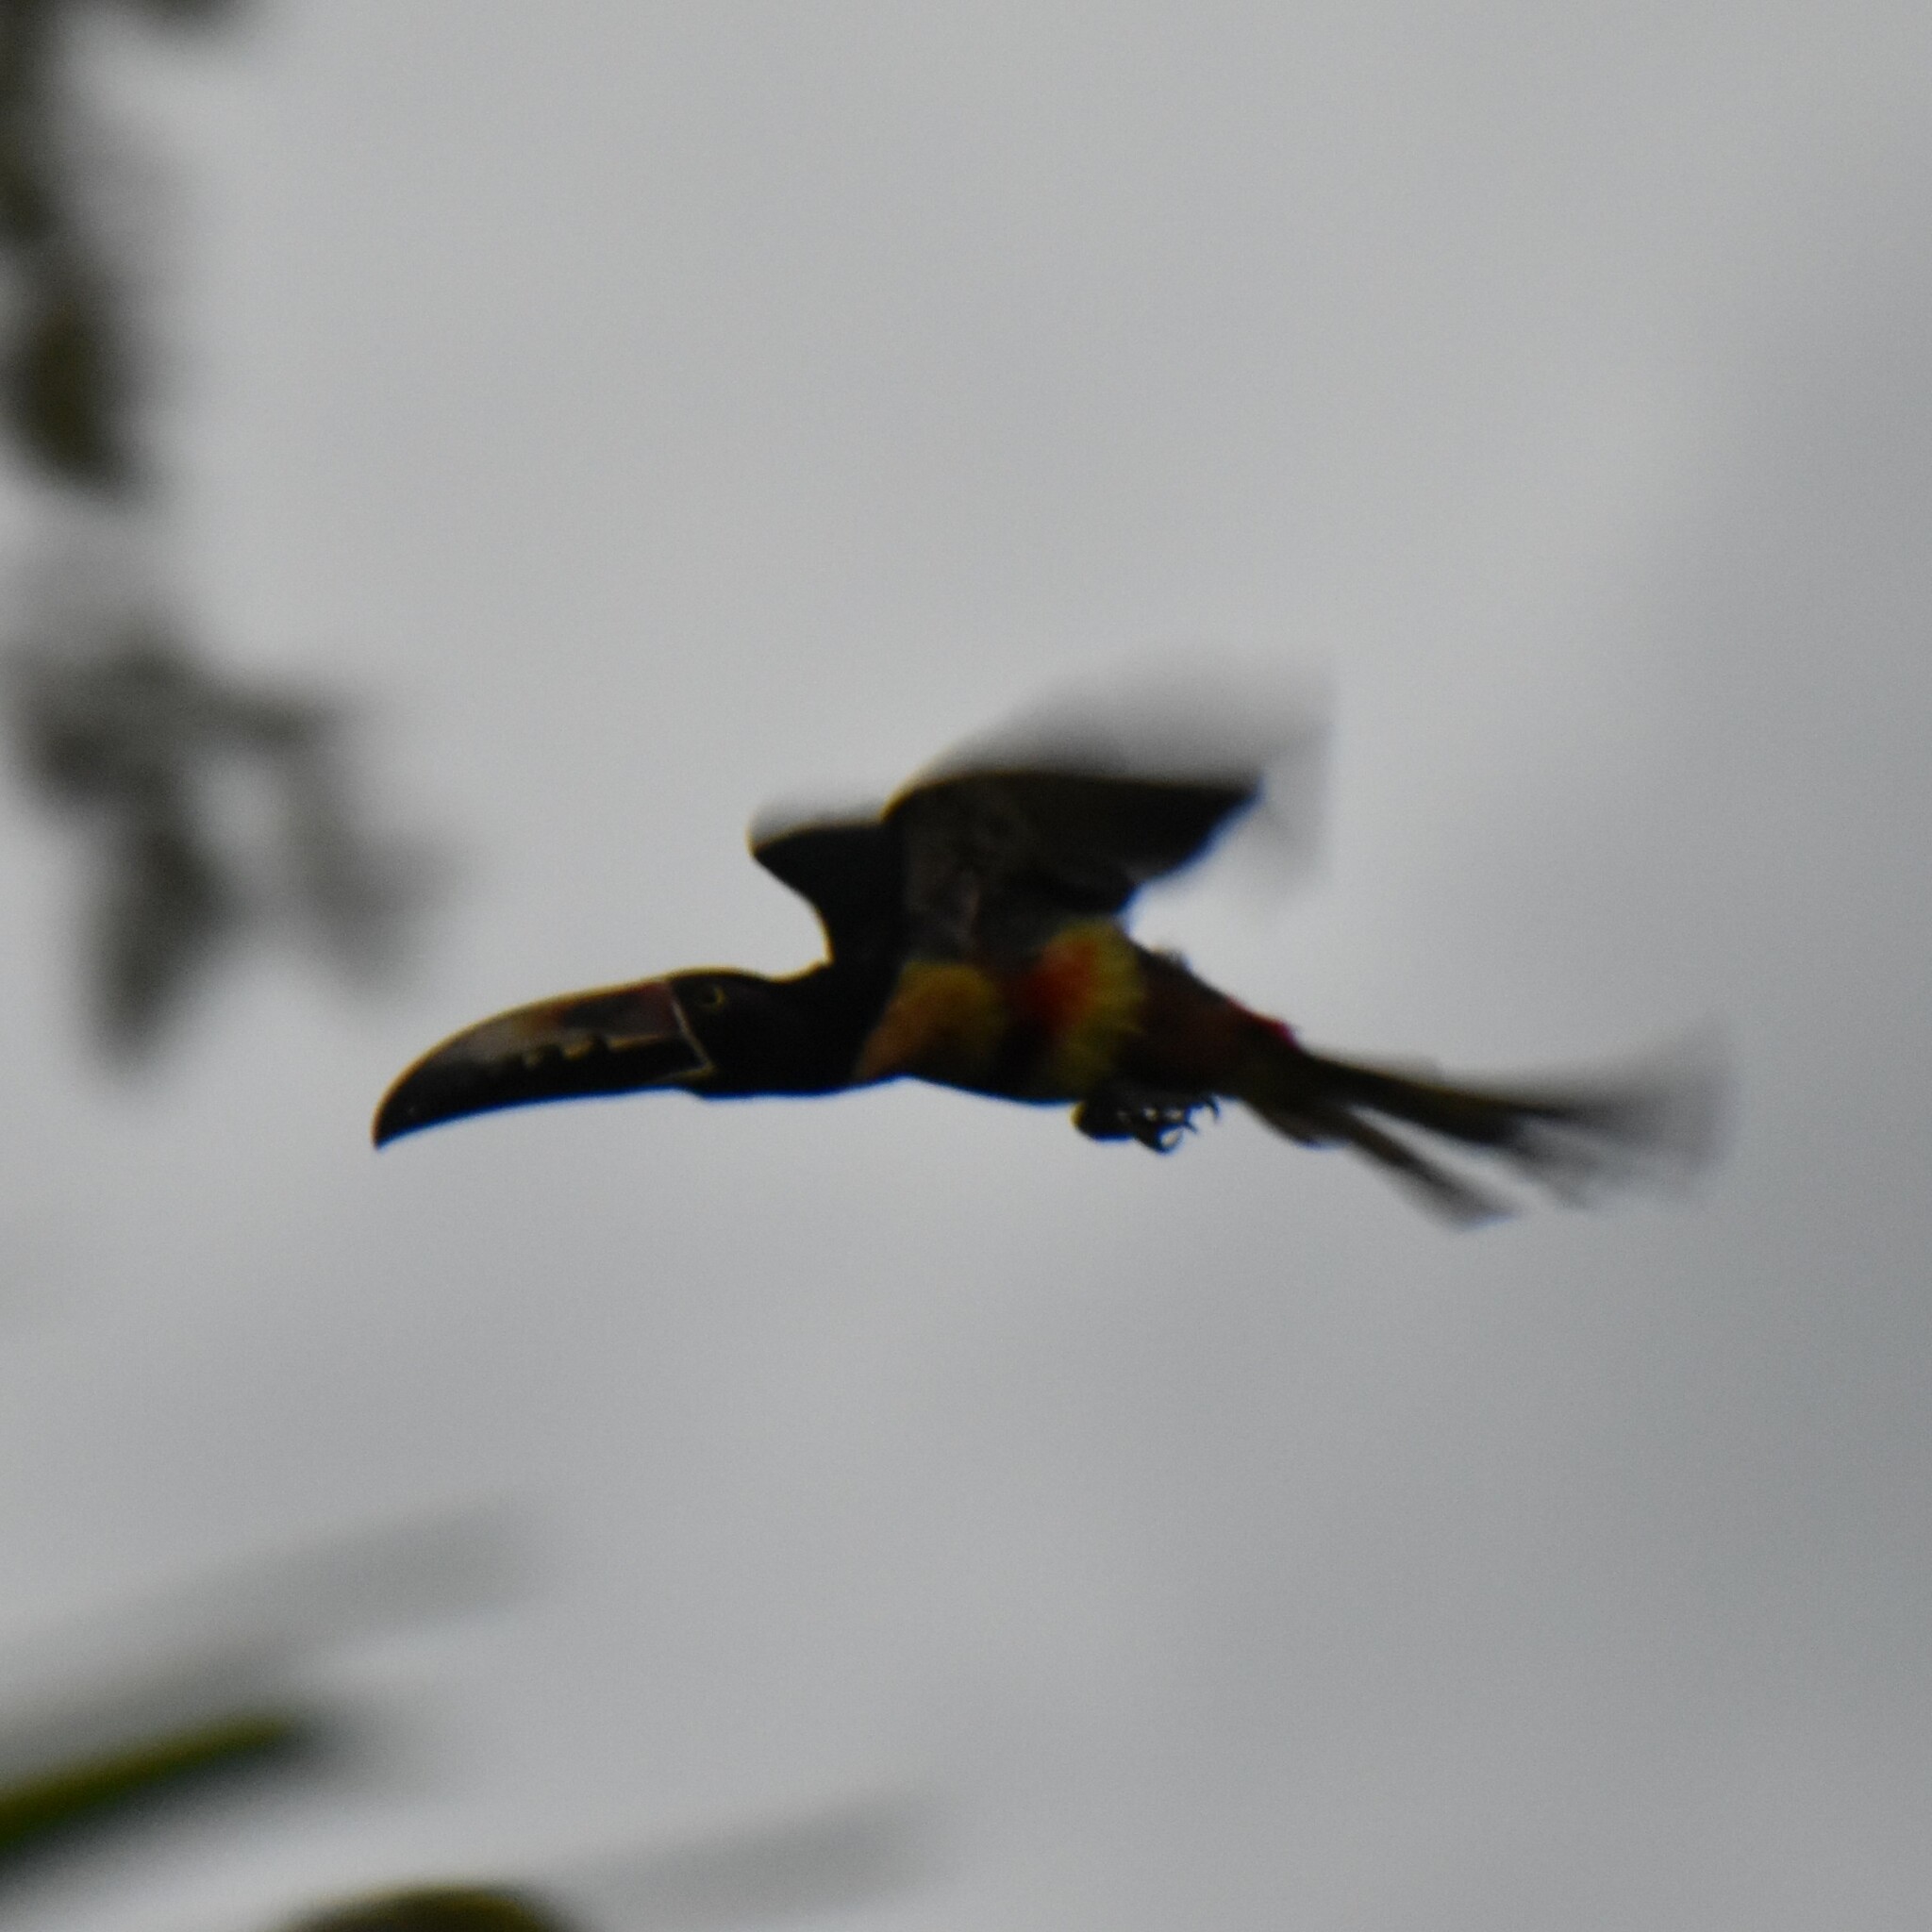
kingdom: Animalia
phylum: Chordata
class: Aves
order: Piciformes
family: Ramphastidae
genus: Pteroglossus
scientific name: Pteroglossus torquatus
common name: Collared aracari
